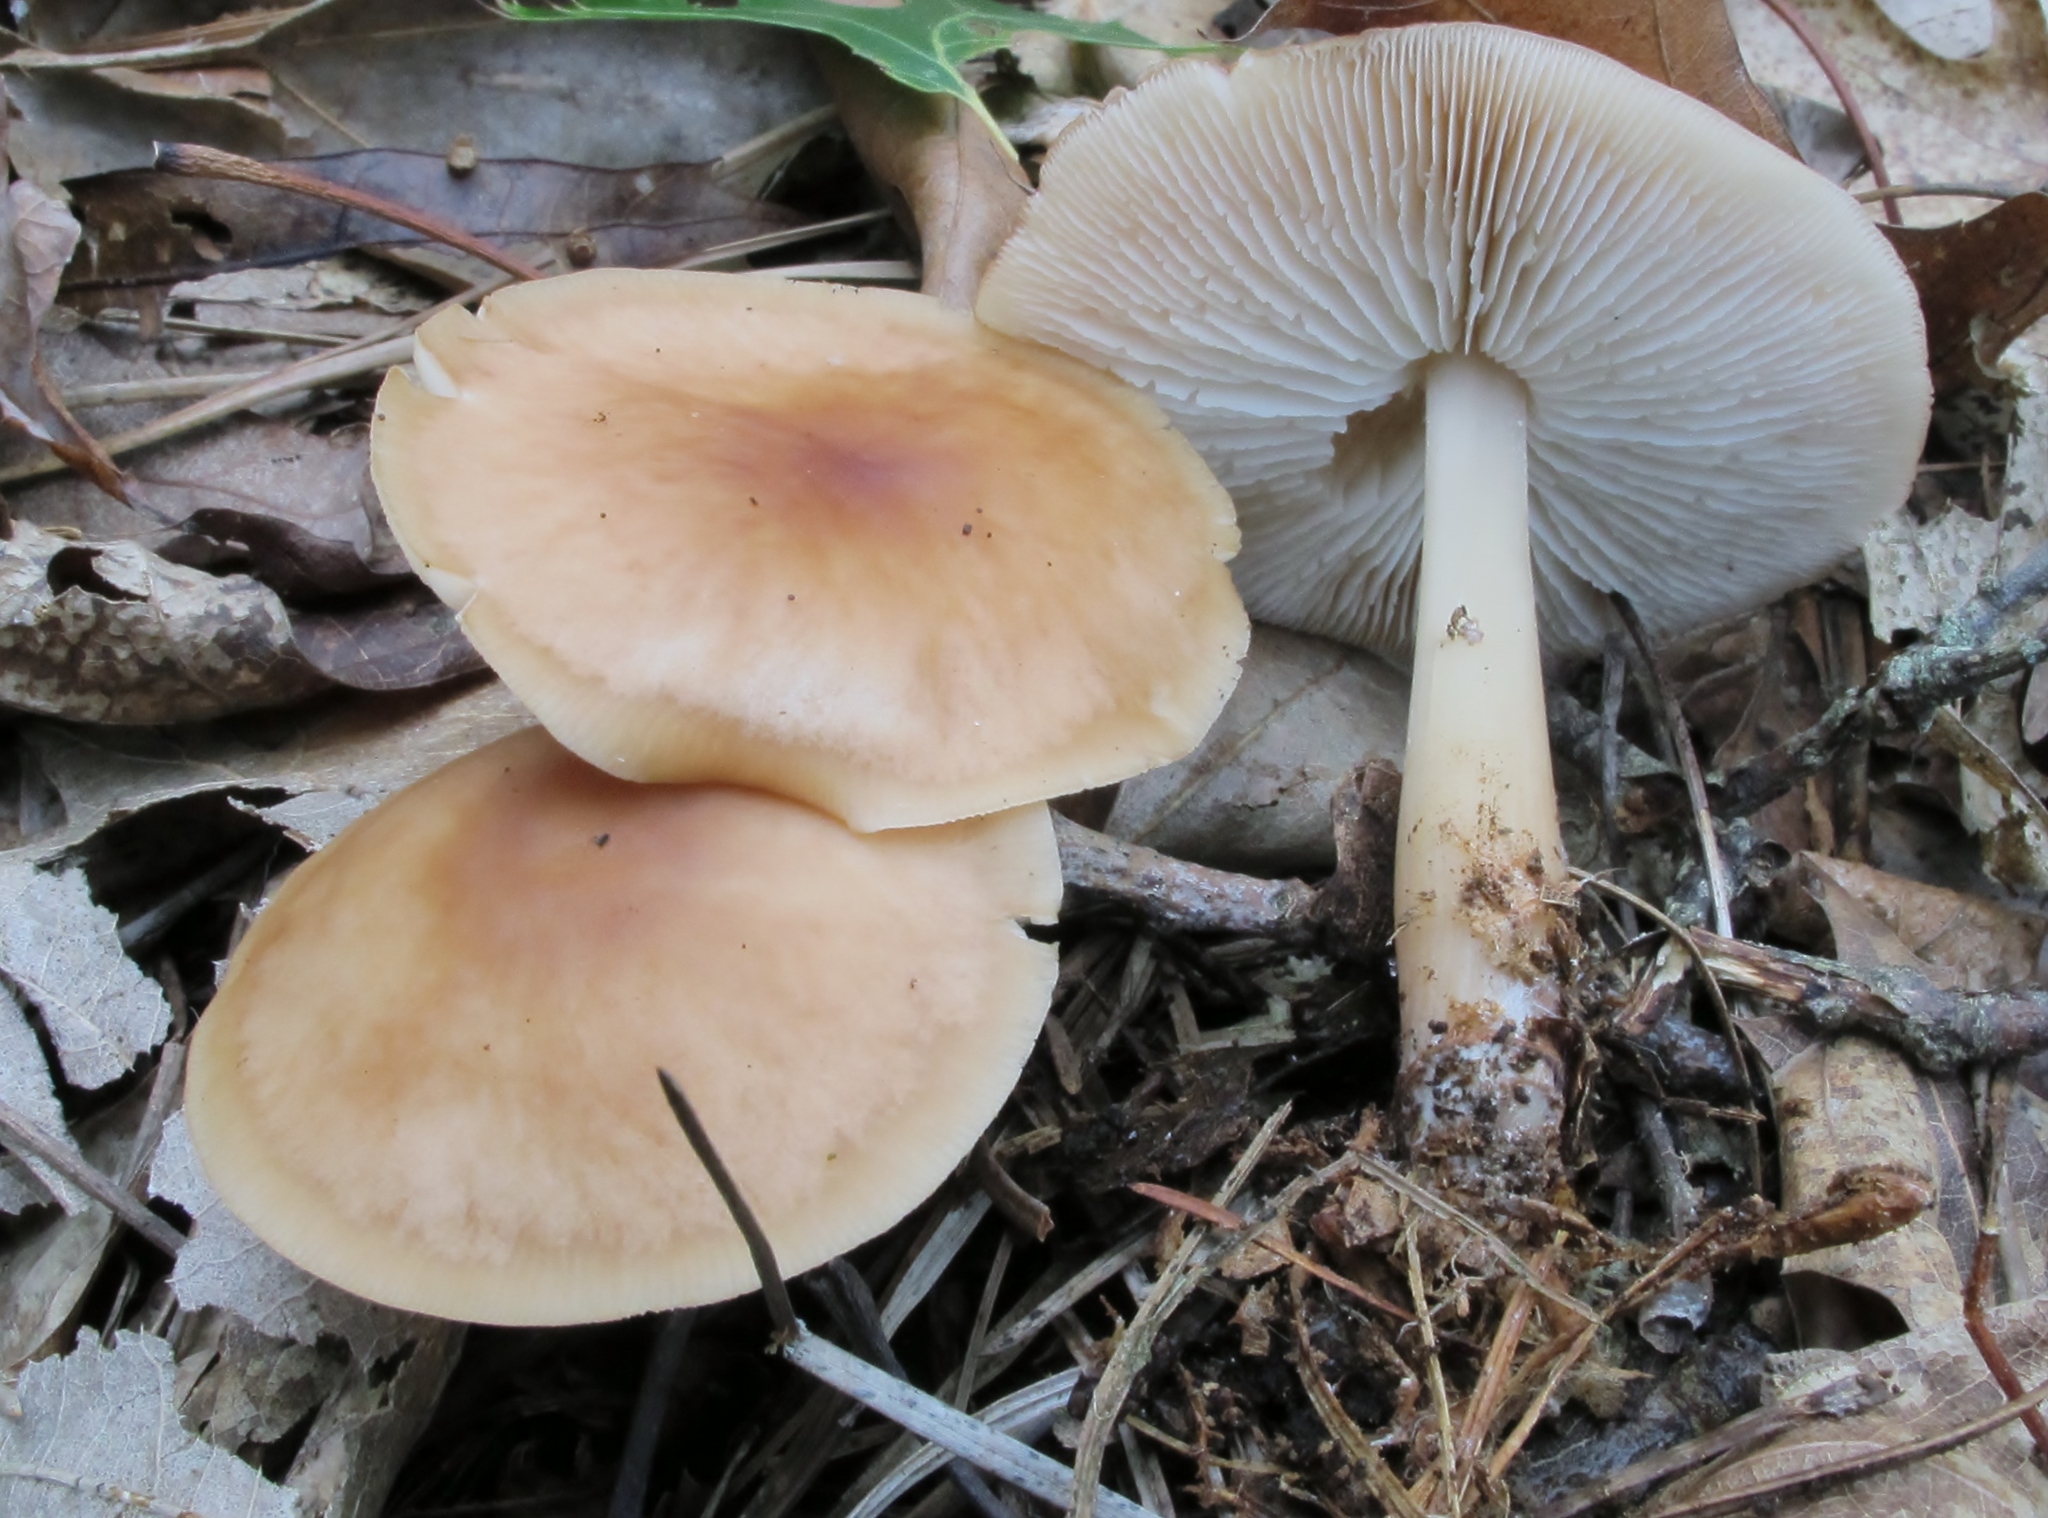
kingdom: Fungi
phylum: Basidiomycota
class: Agaricomycetes
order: Agaricales
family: Omphalotaceae
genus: Rhodocollybia
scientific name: Rhodocollybia butyracea
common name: Butter cap
